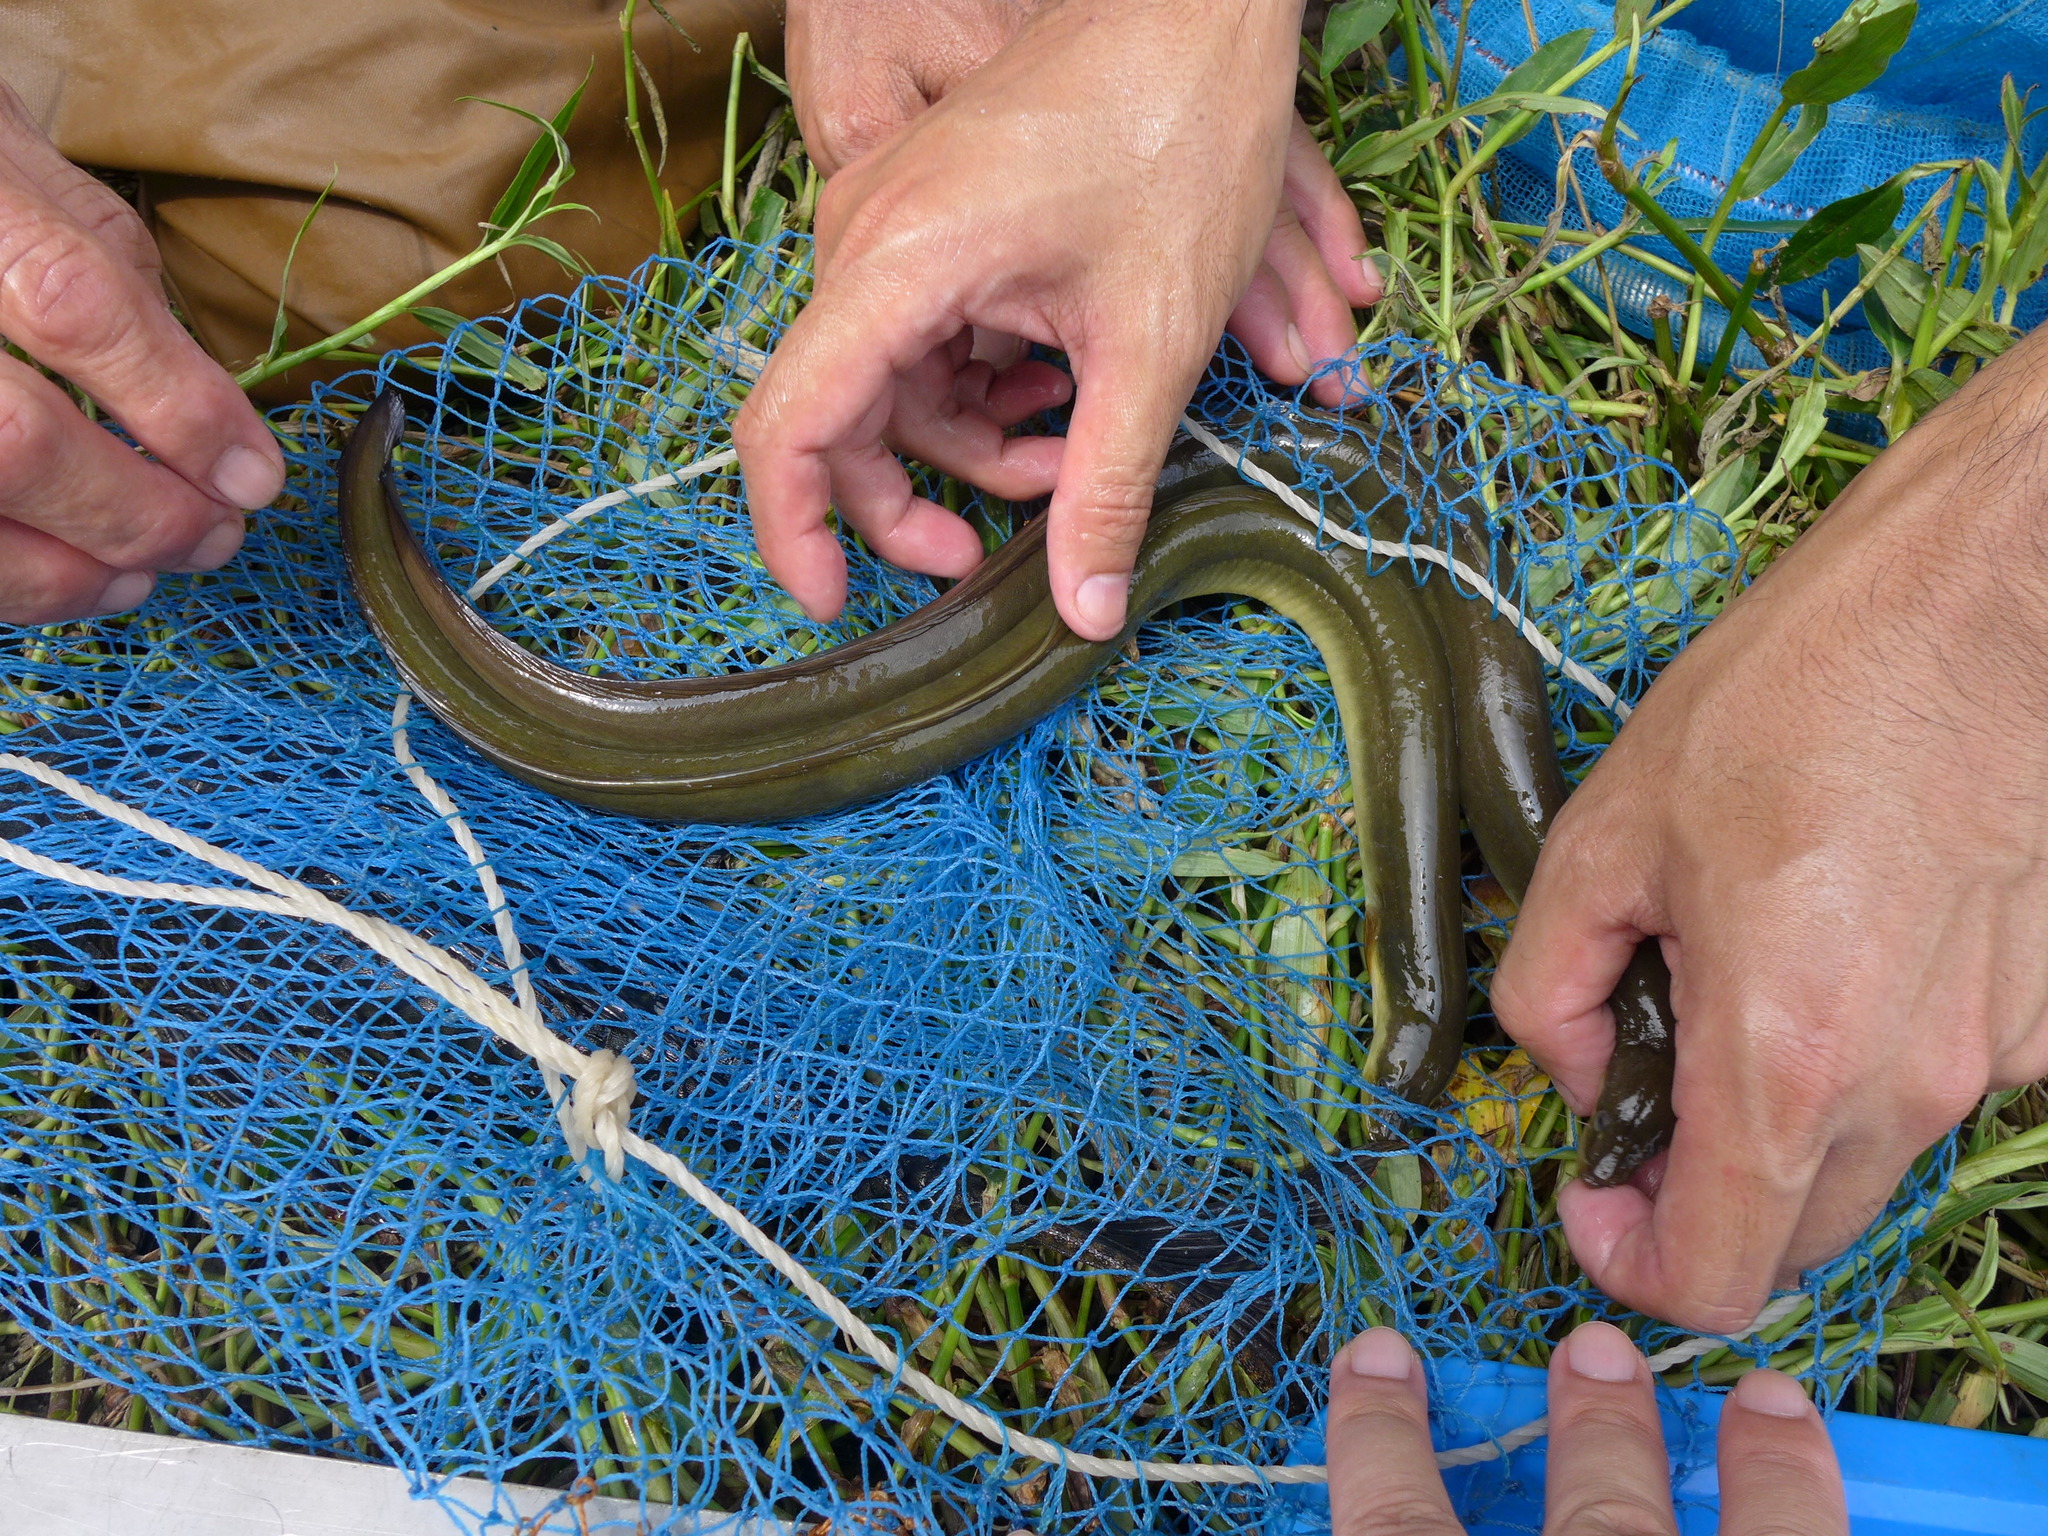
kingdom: Animalia
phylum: Chordata
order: Synbranchiformes
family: Synbranchidae
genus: Monopterus
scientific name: Monopterus albus
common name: Asian swamp eel
